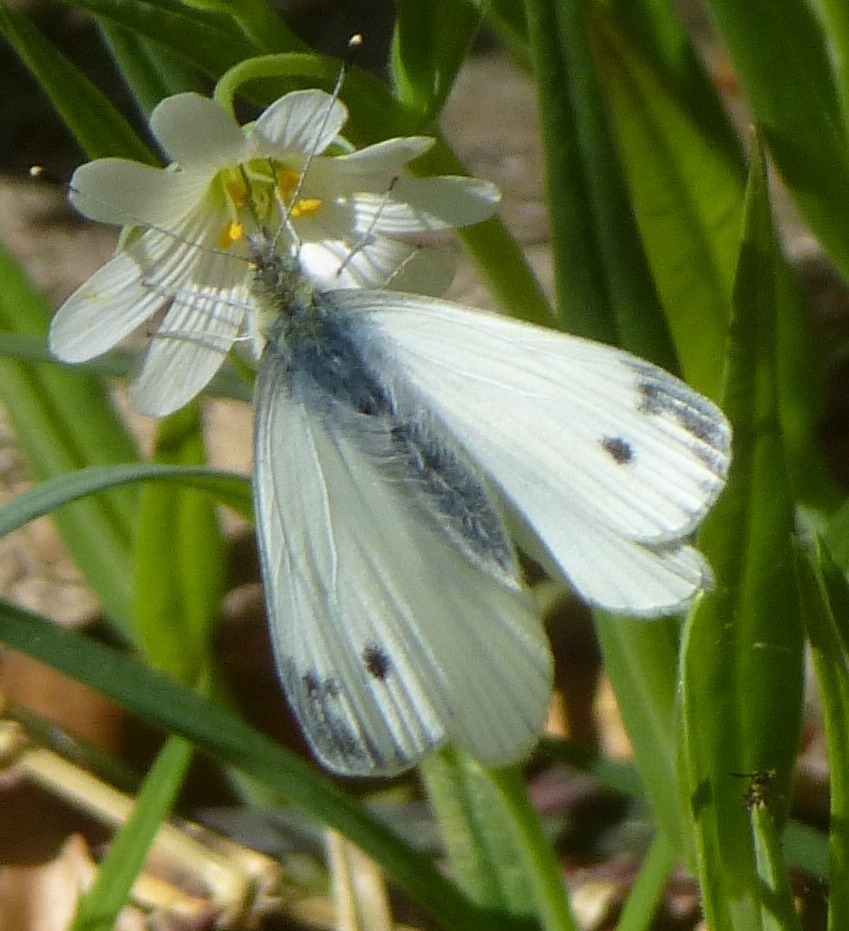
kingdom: Animalia
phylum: Arthropoda
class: Insecta
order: Lepidoptera
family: Pieridae
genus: Pieris
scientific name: Pieris napi
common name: Green-veined white
